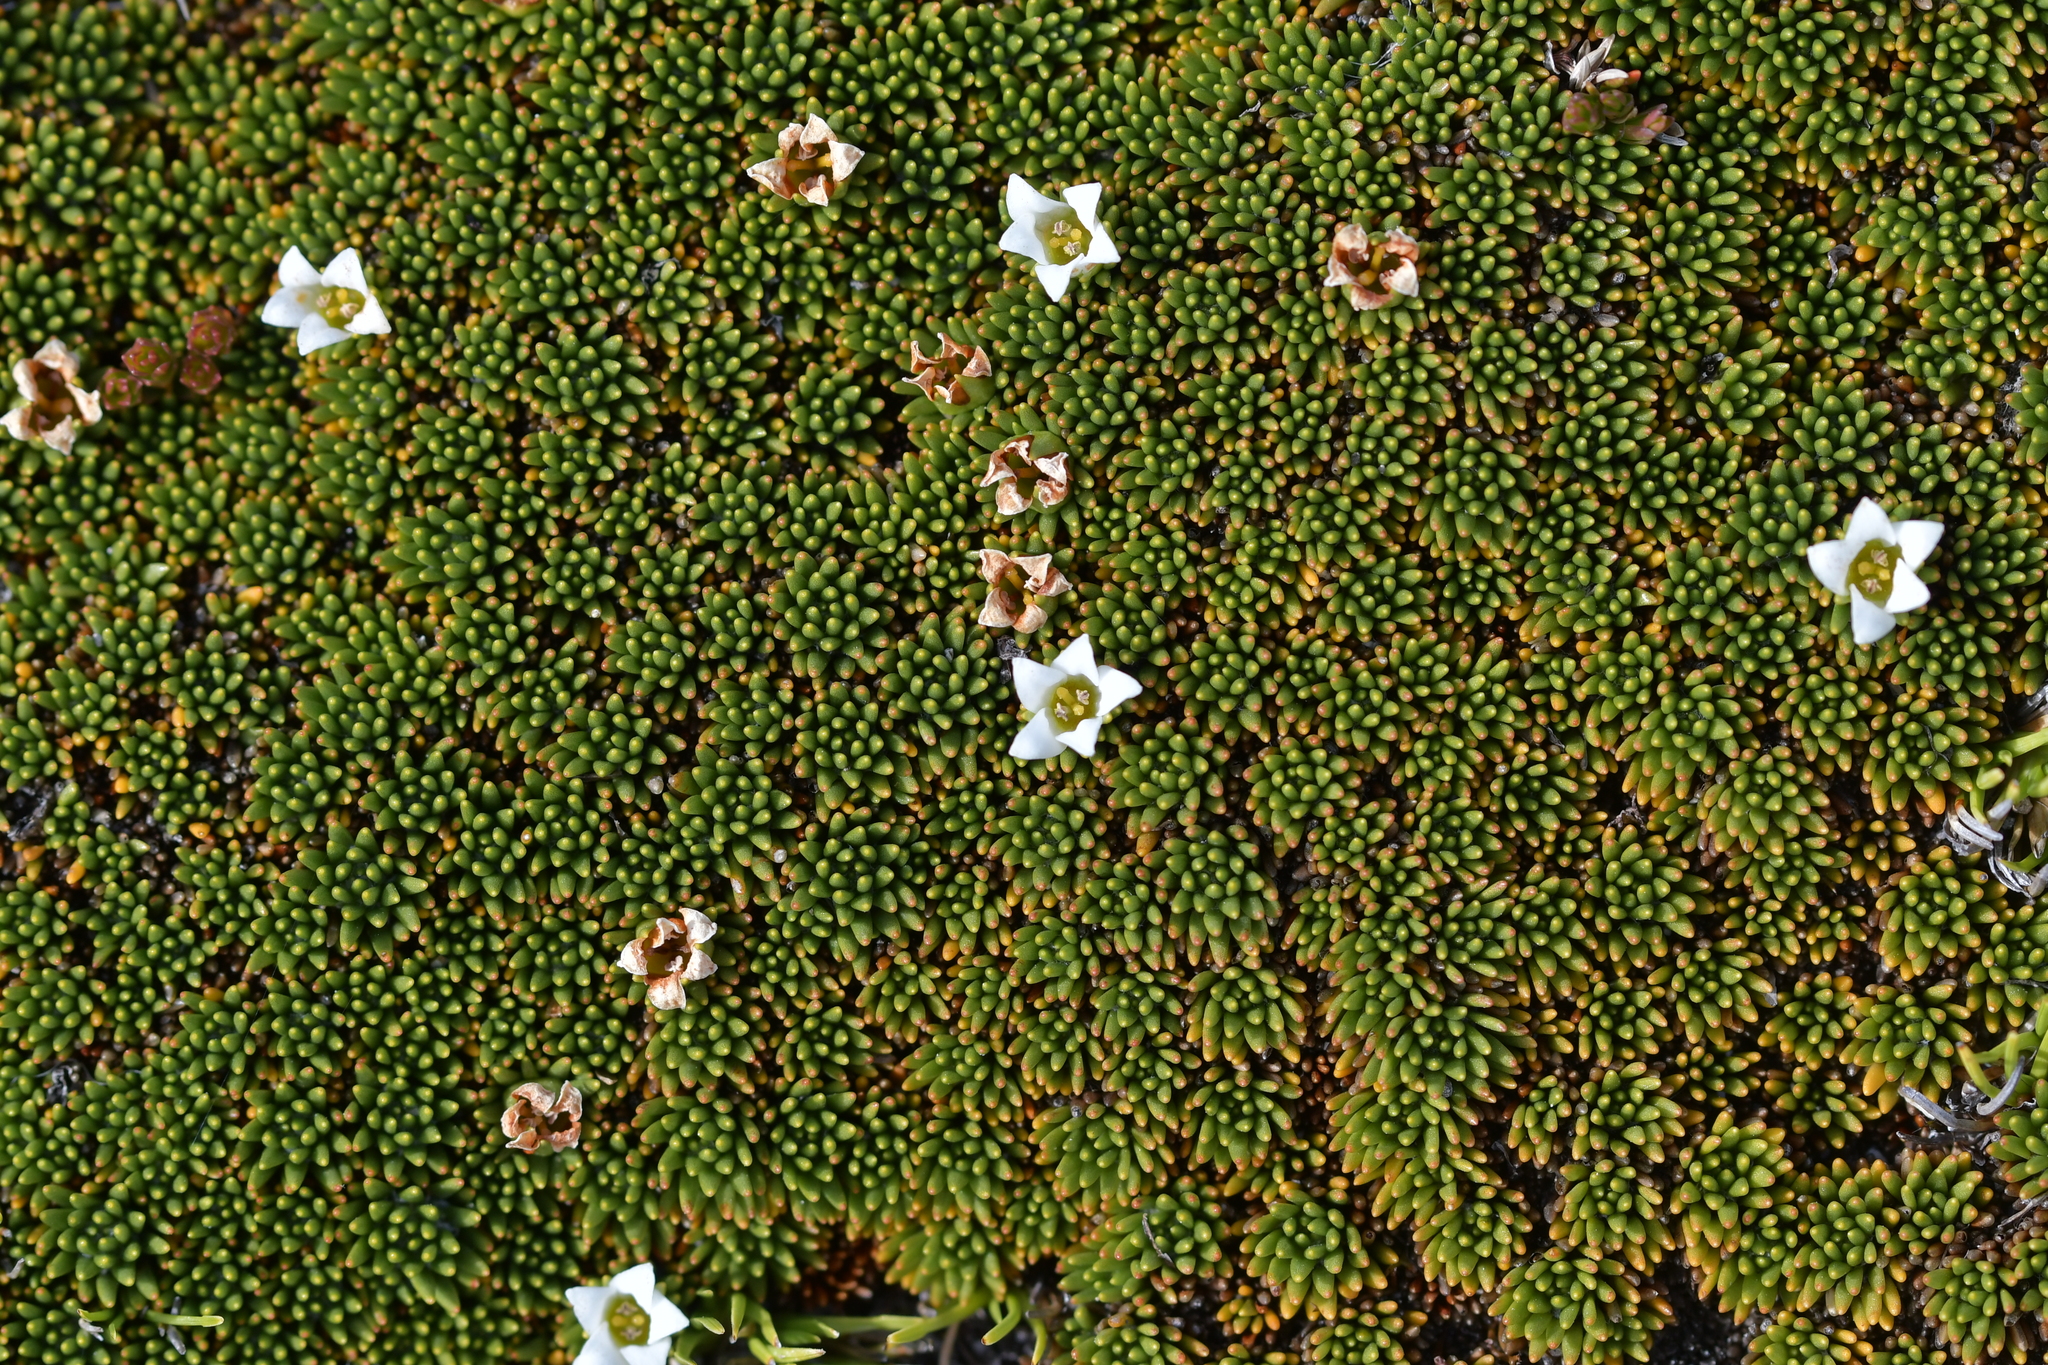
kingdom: Plantae
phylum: Tracheophyta
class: Magnoliopsida
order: Asterales
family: Stylidiaceae
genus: Donatia
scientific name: Donatia novae-zelandiae
